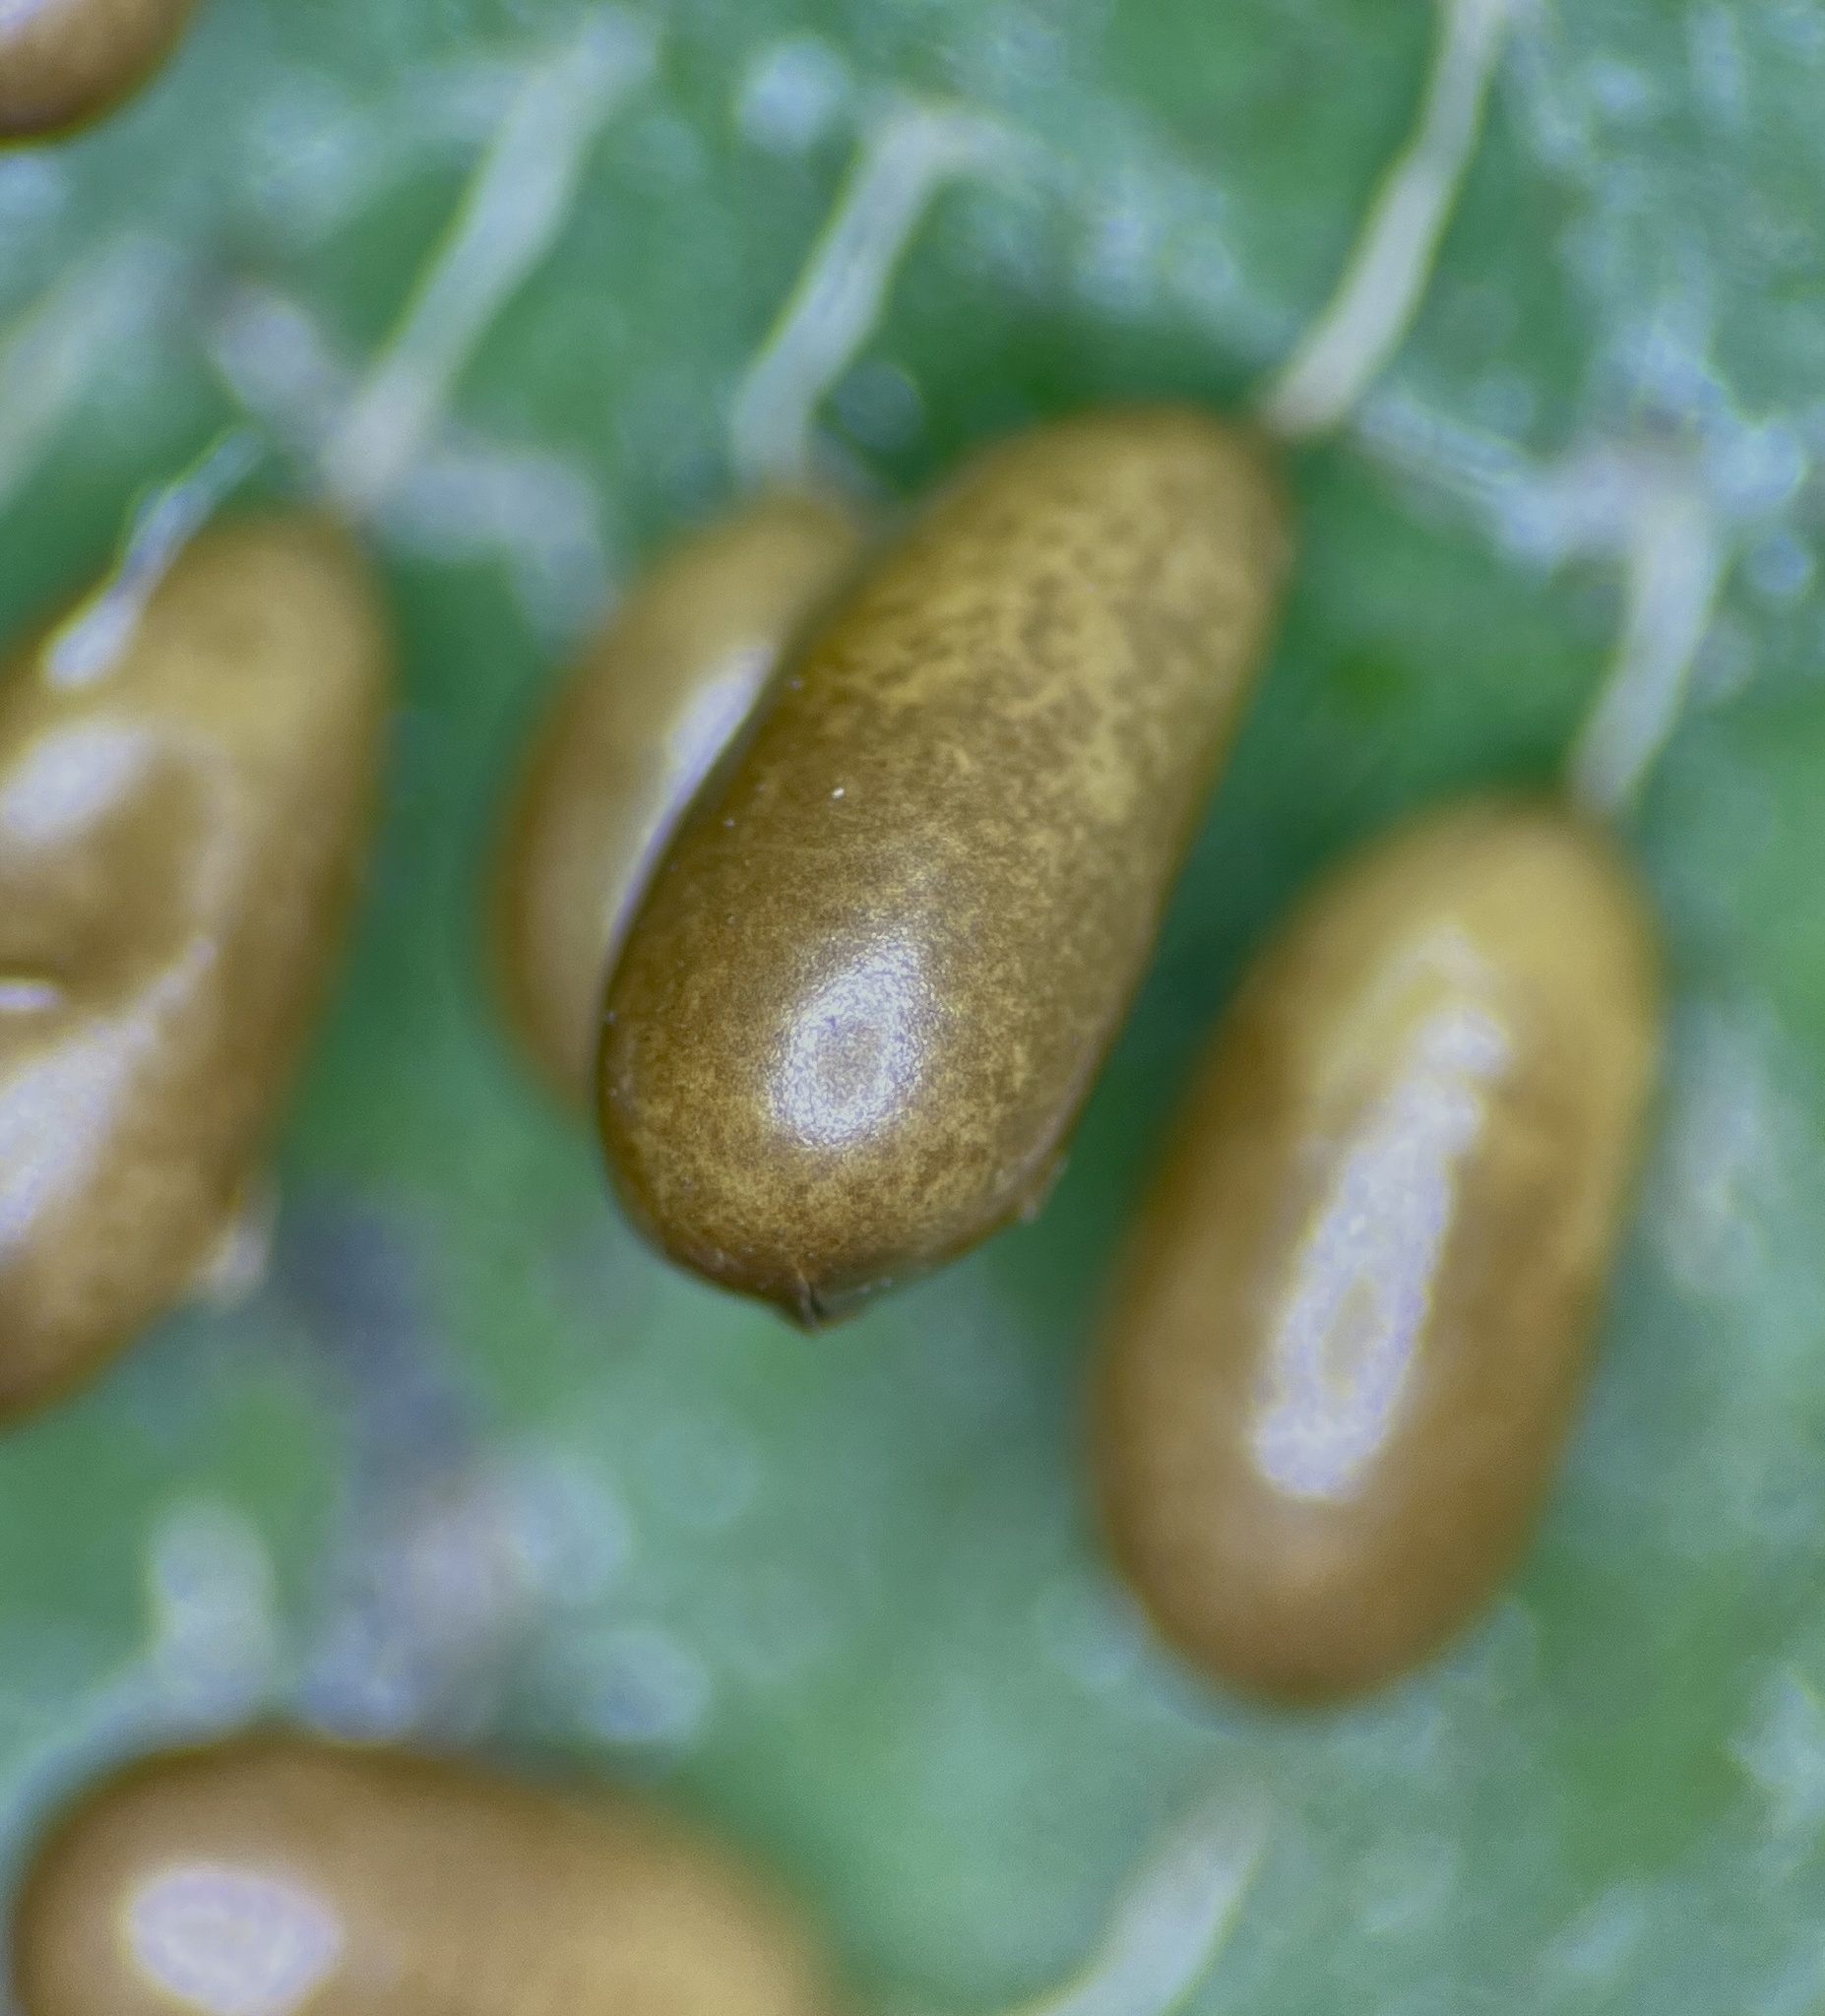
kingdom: Protozoa
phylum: Mycetozoa
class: Myxomycetes
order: Physarales
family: Physaraceae
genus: Leocarpus
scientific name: Leocarpus fragilis
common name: Insect-egg slime
